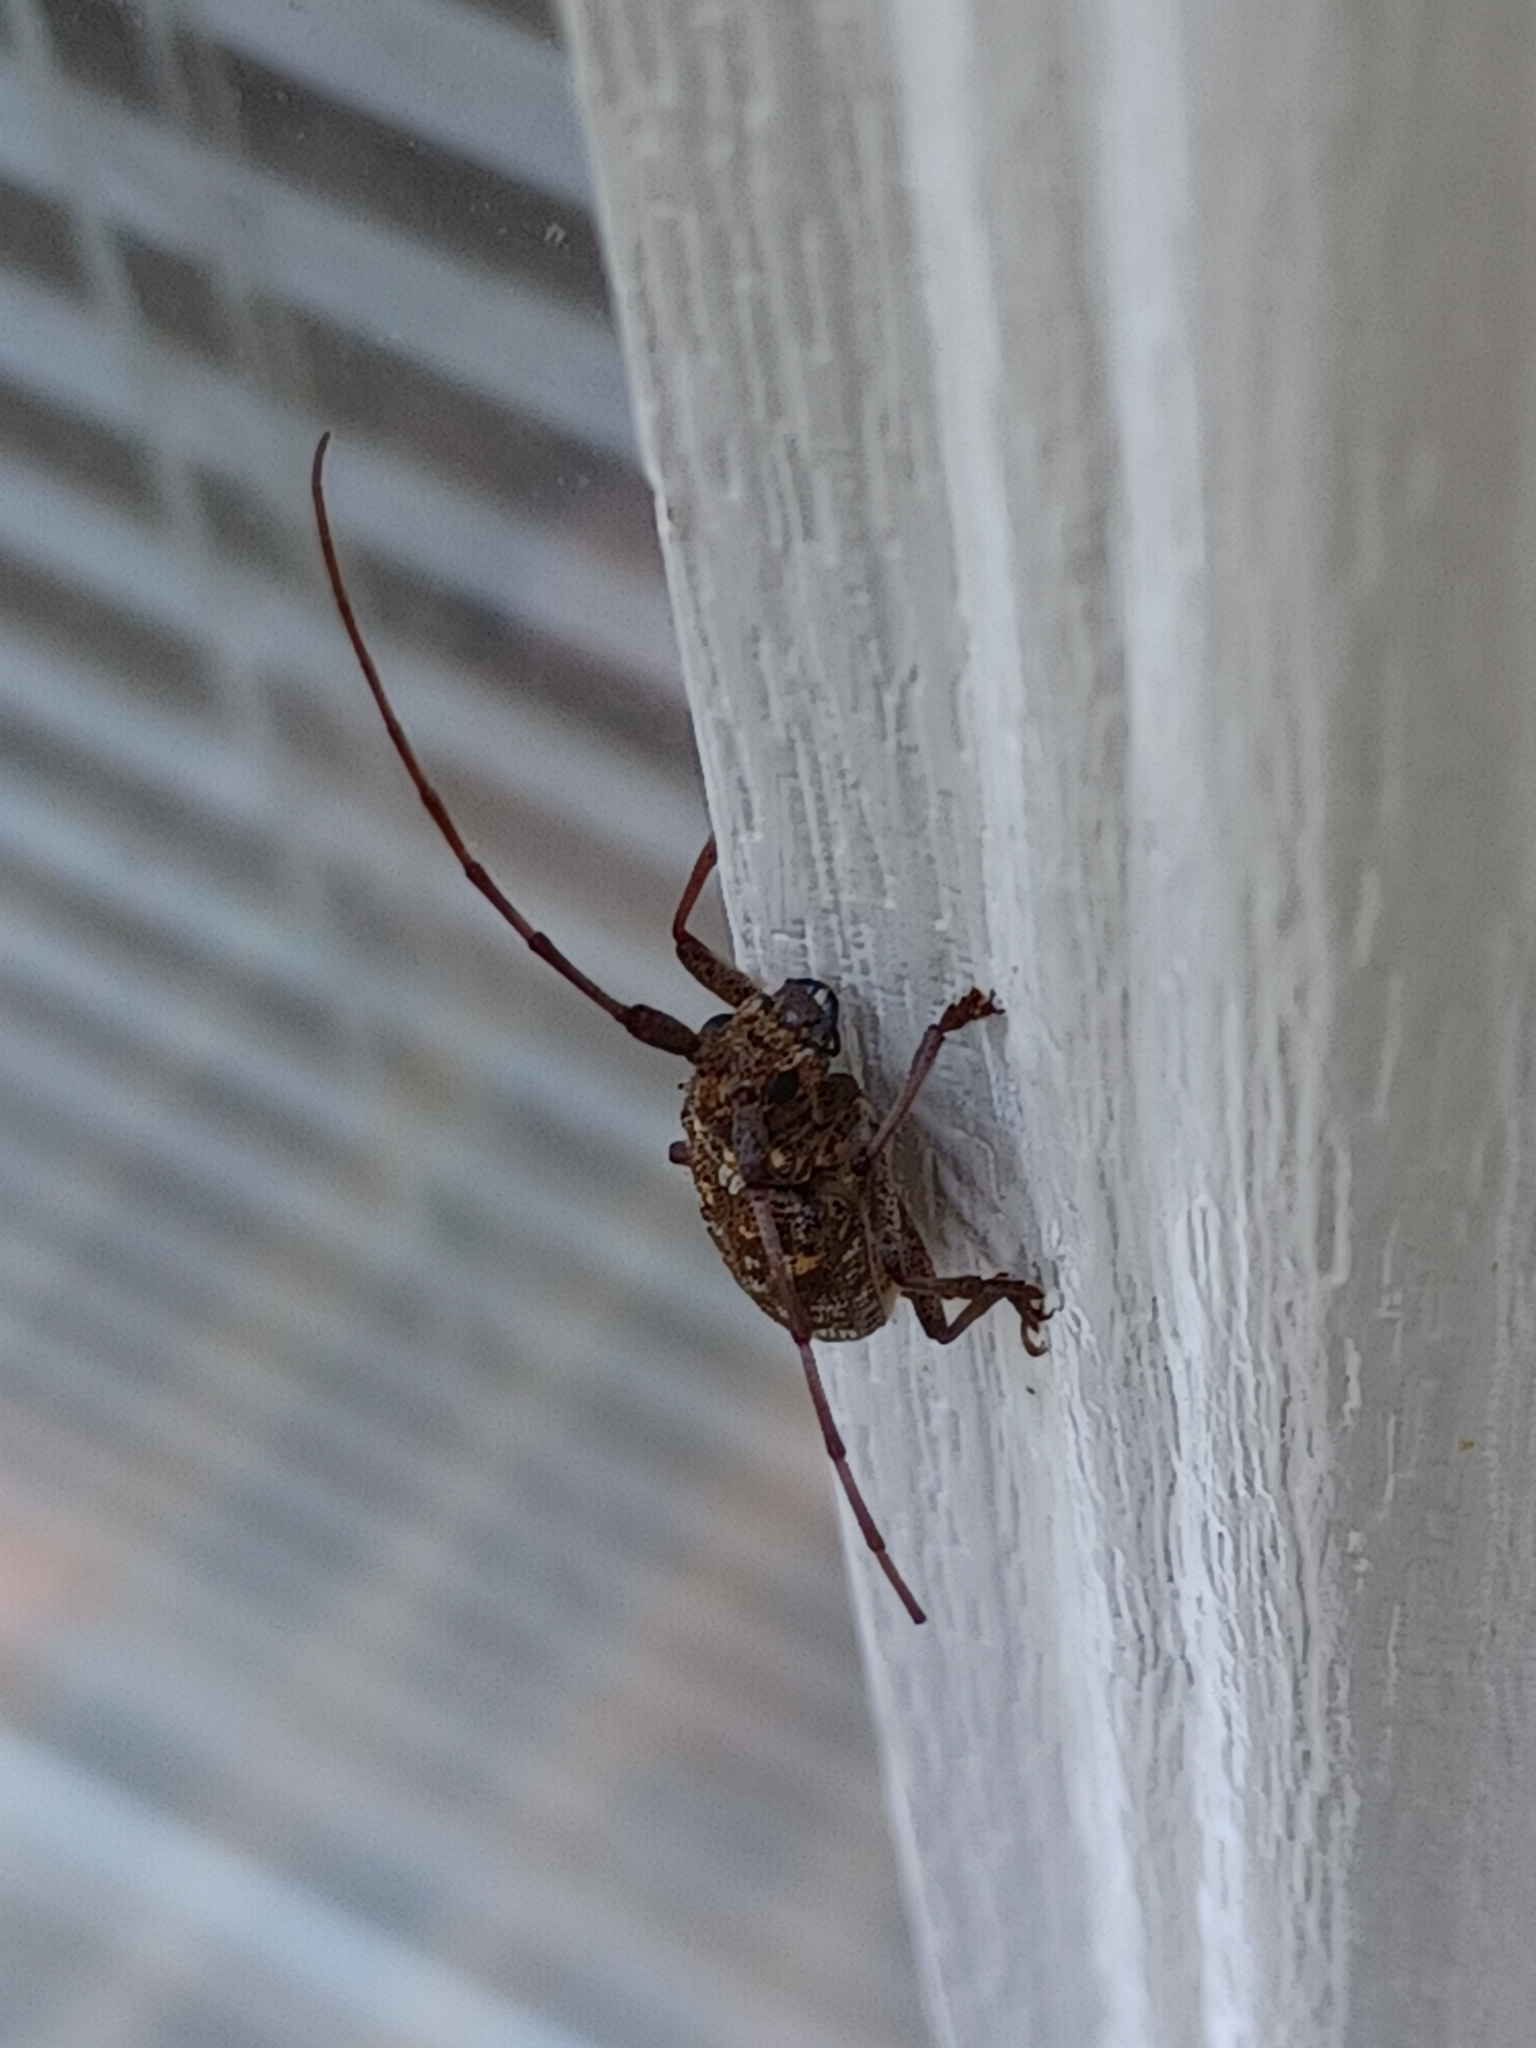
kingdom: Animalia
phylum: Arthropoda
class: Insecta
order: Coleoptera
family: Cerambycidae
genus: Monochamus
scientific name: Monochamus carolinensis
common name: Carolina pine sawyer
